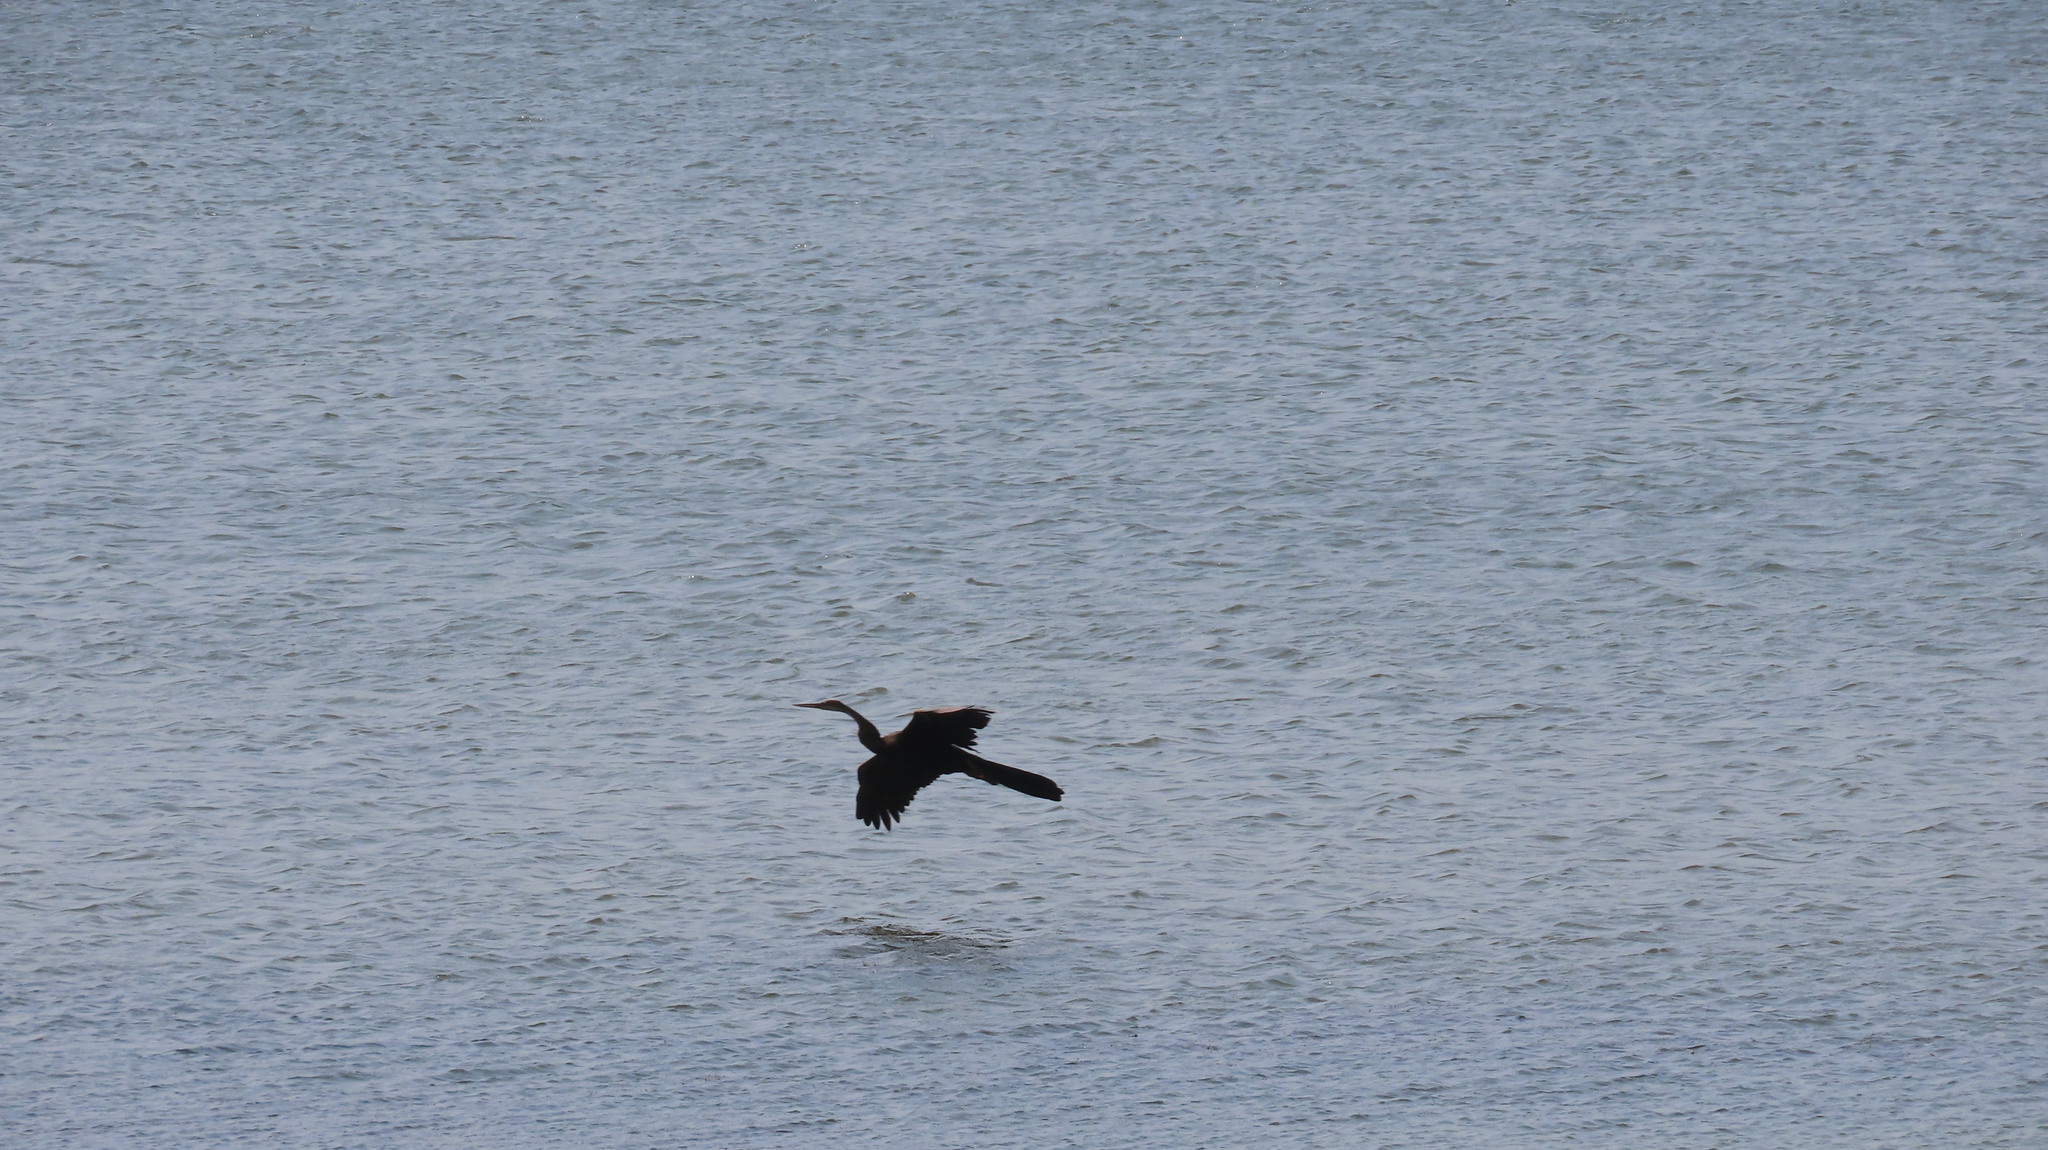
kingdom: Animalia
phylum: Chordata
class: Aves
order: Suliformes
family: Anhingidae
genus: Anhinga
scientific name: Anhinga melanogaster
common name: Oriental darter
